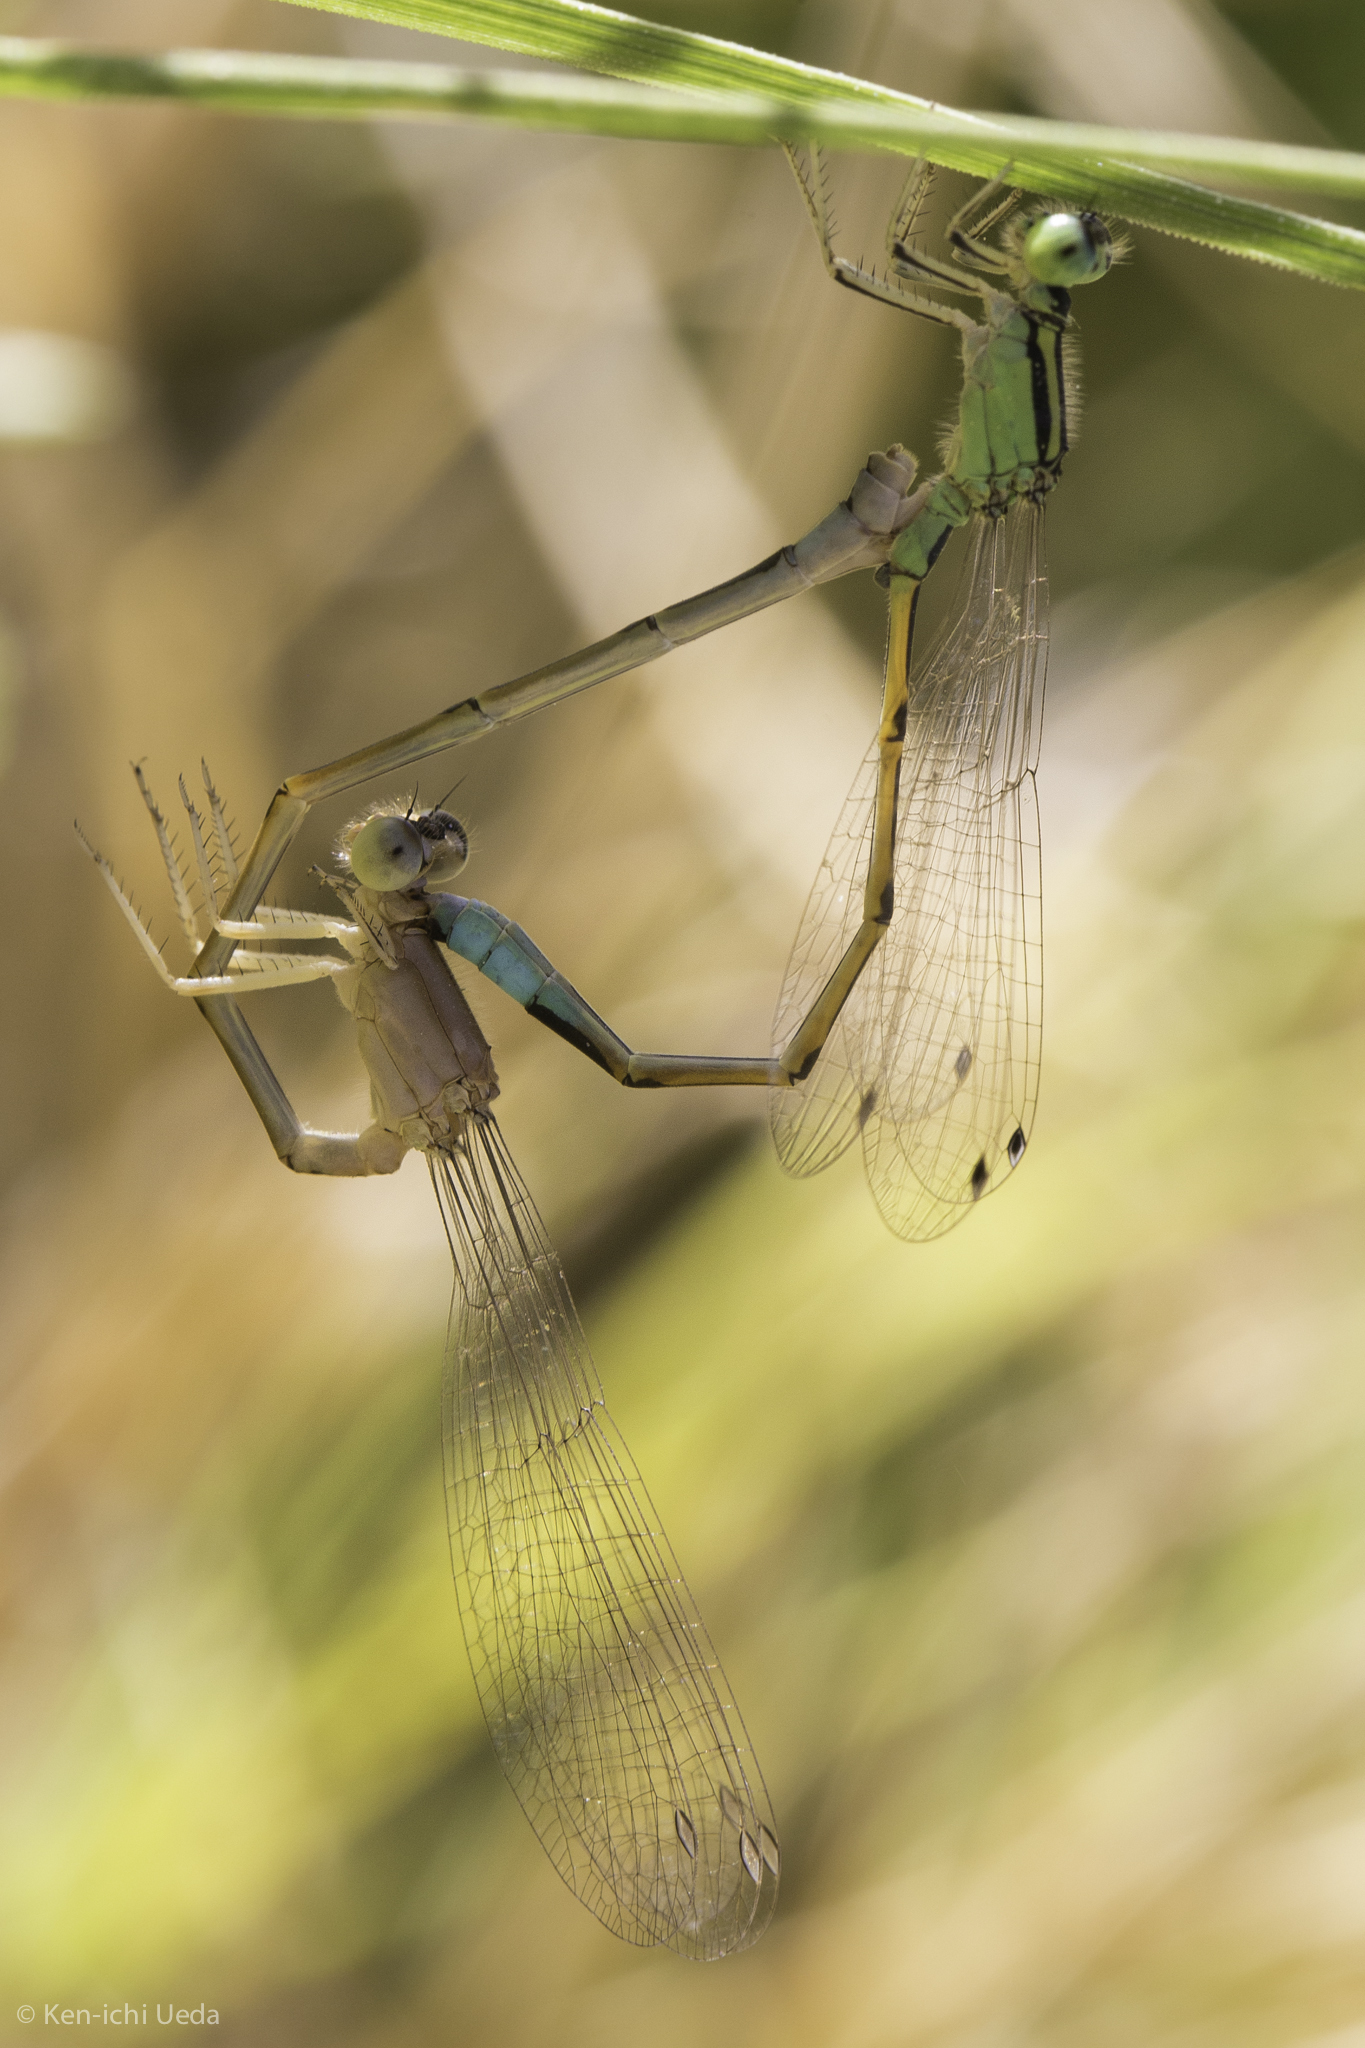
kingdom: Animalia
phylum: Arthropoda
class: Insecta
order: Odonata
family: Coenagrionidae
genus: Ischnura
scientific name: Ischnura barberi
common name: Desert forktail
